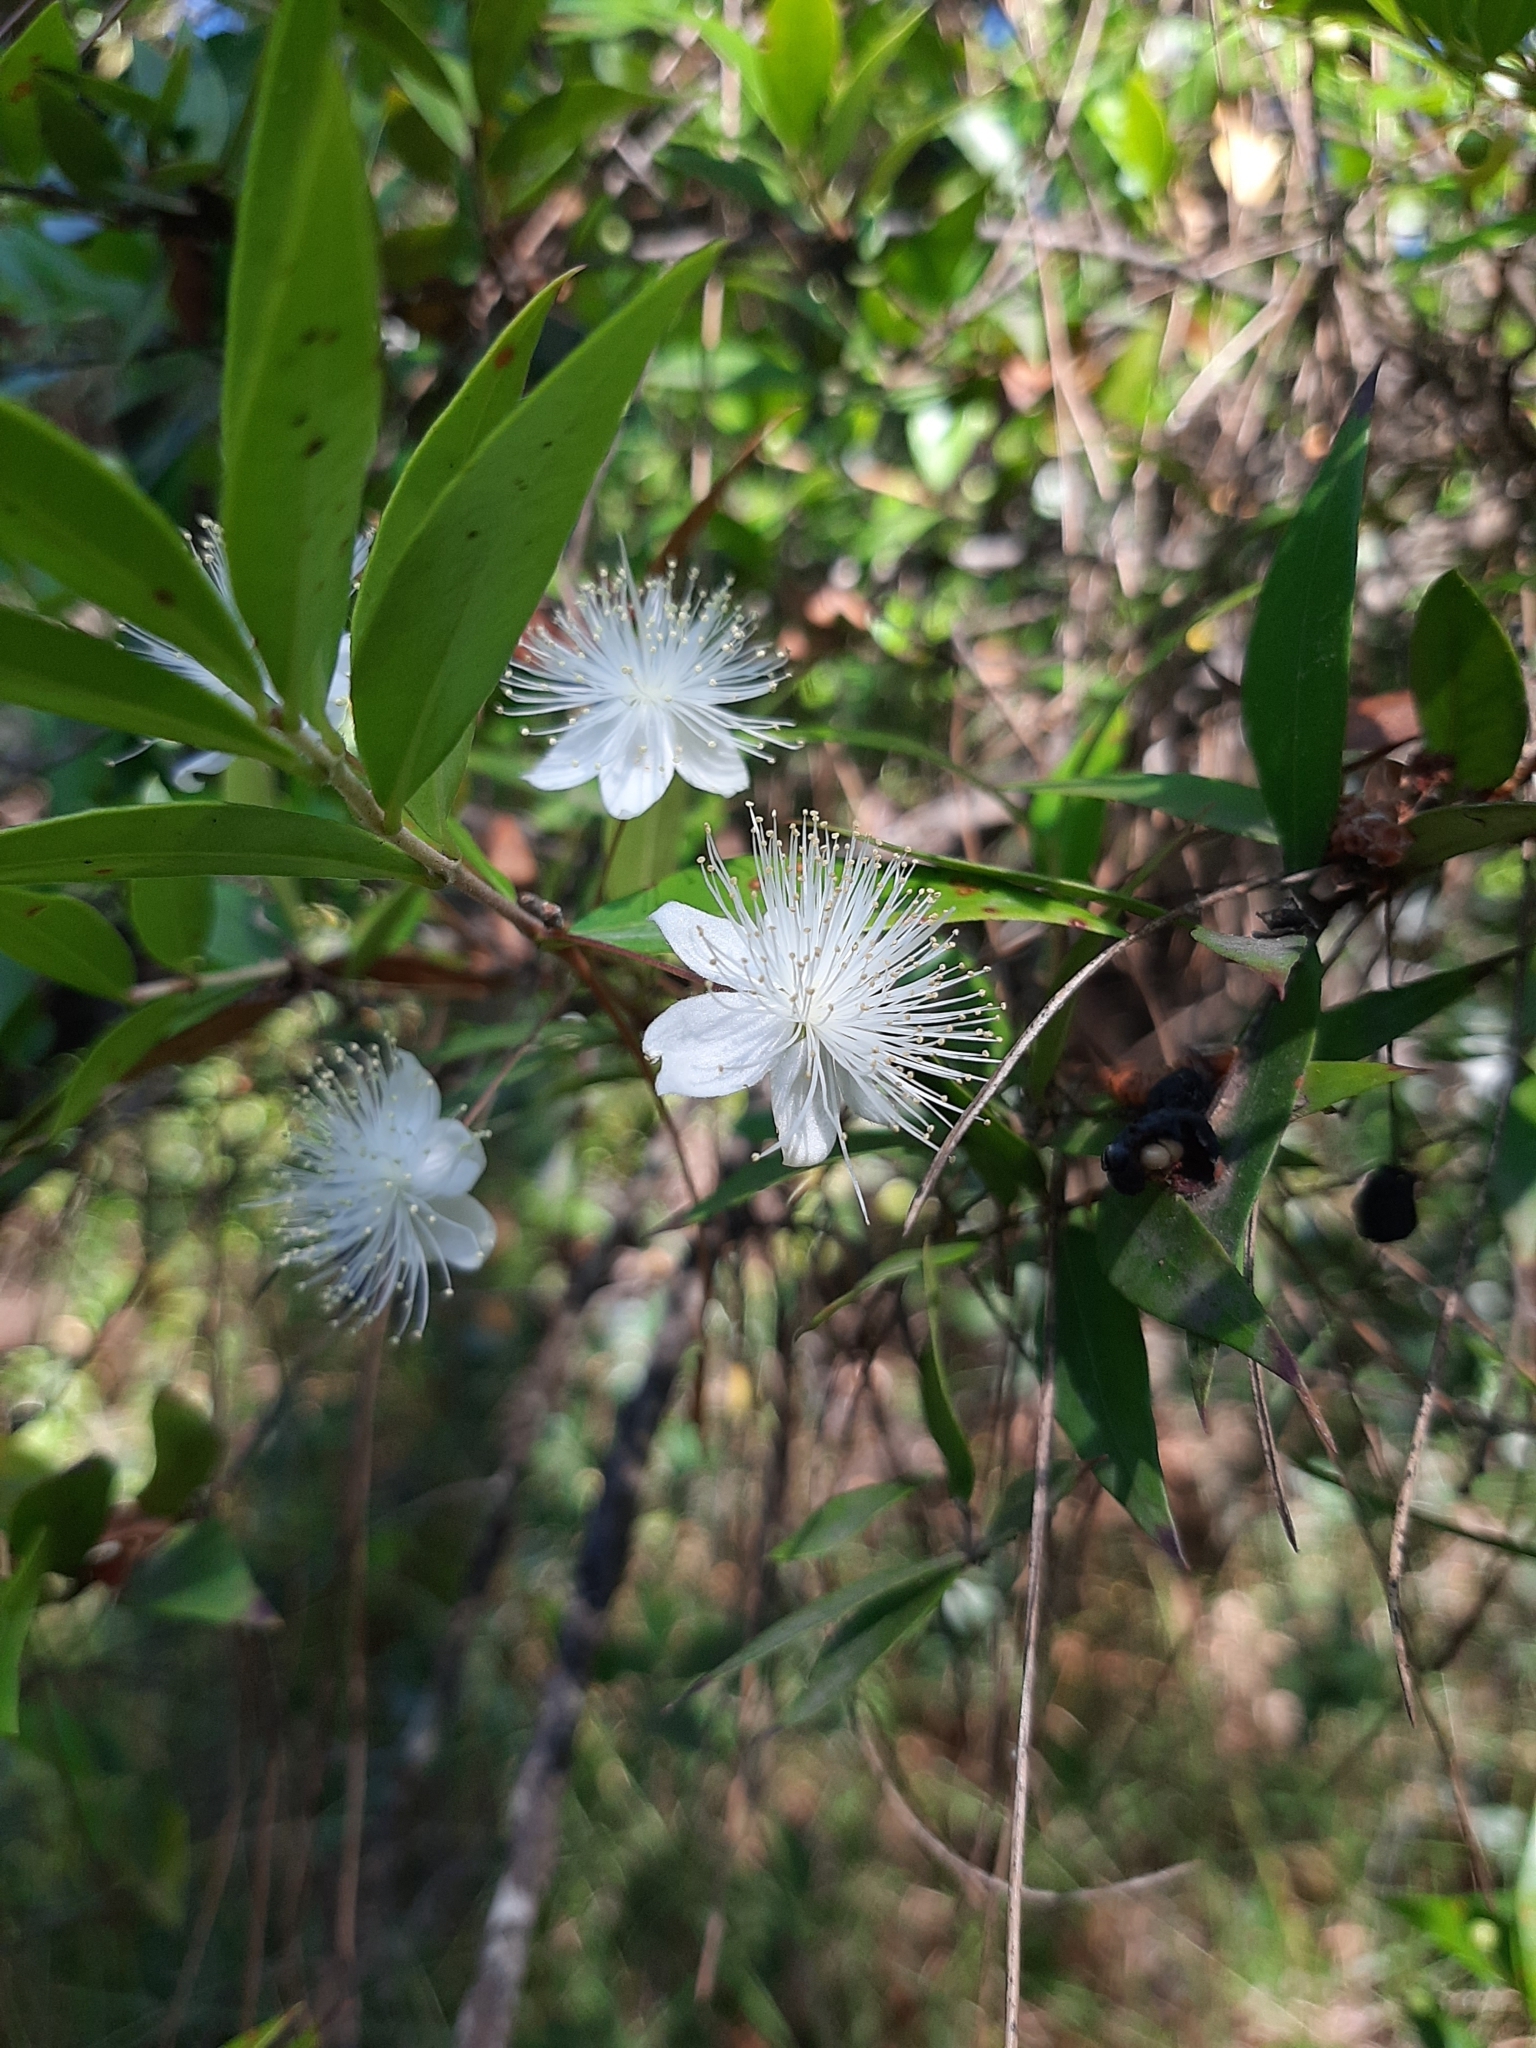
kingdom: Plantae
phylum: Tracheophyta
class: Magnoliopsida
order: Myrtales
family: Myrtaceae
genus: Myrtus
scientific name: Myrtus communis
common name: Myrtle
